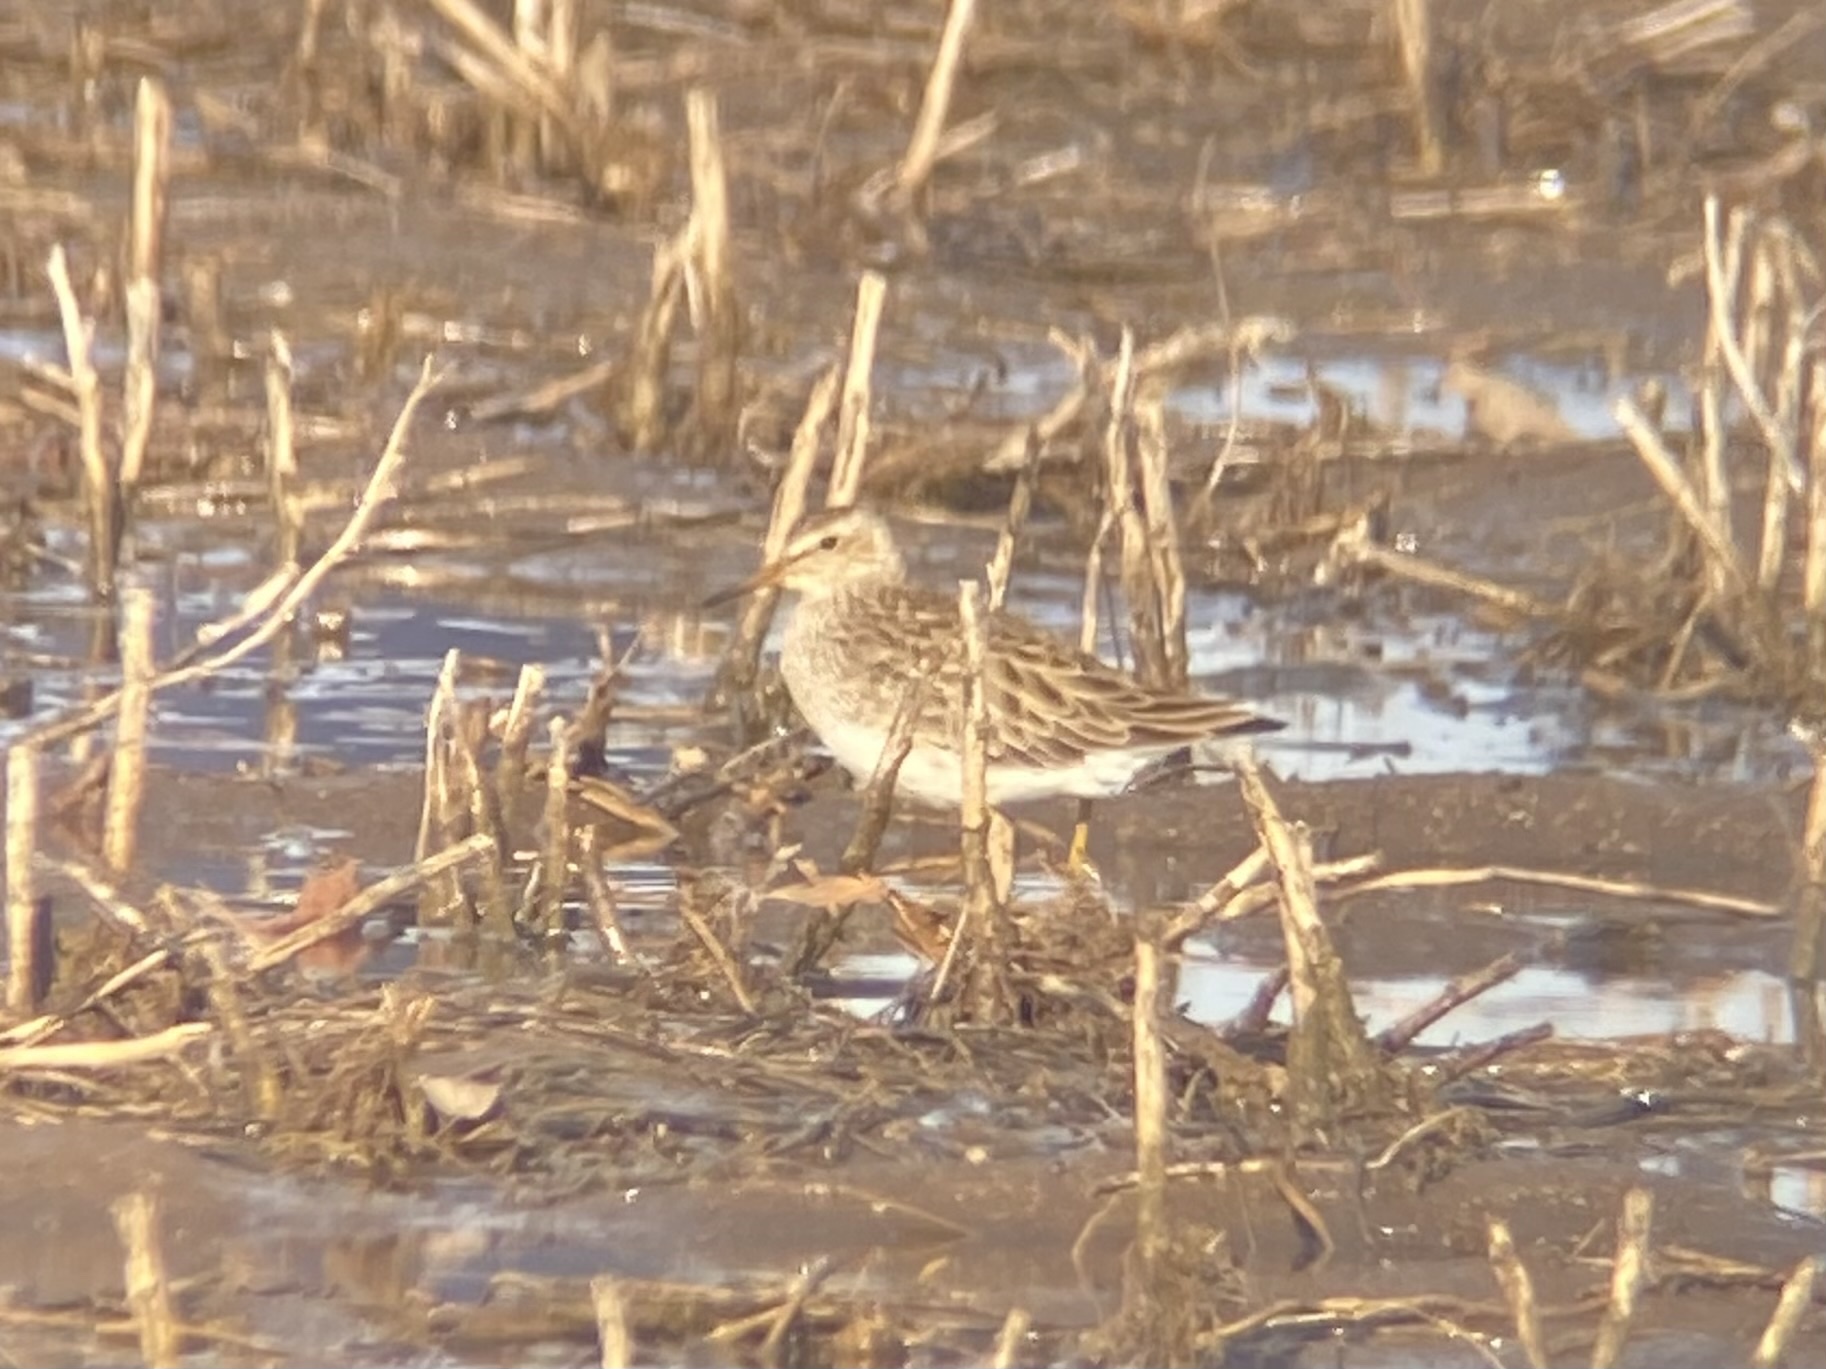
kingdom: Animalia
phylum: Chordata
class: Aves
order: Charadriiformes
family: Scolopacidae
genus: Calidris
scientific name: Calidris melanotos
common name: Pectoral sandpiper
